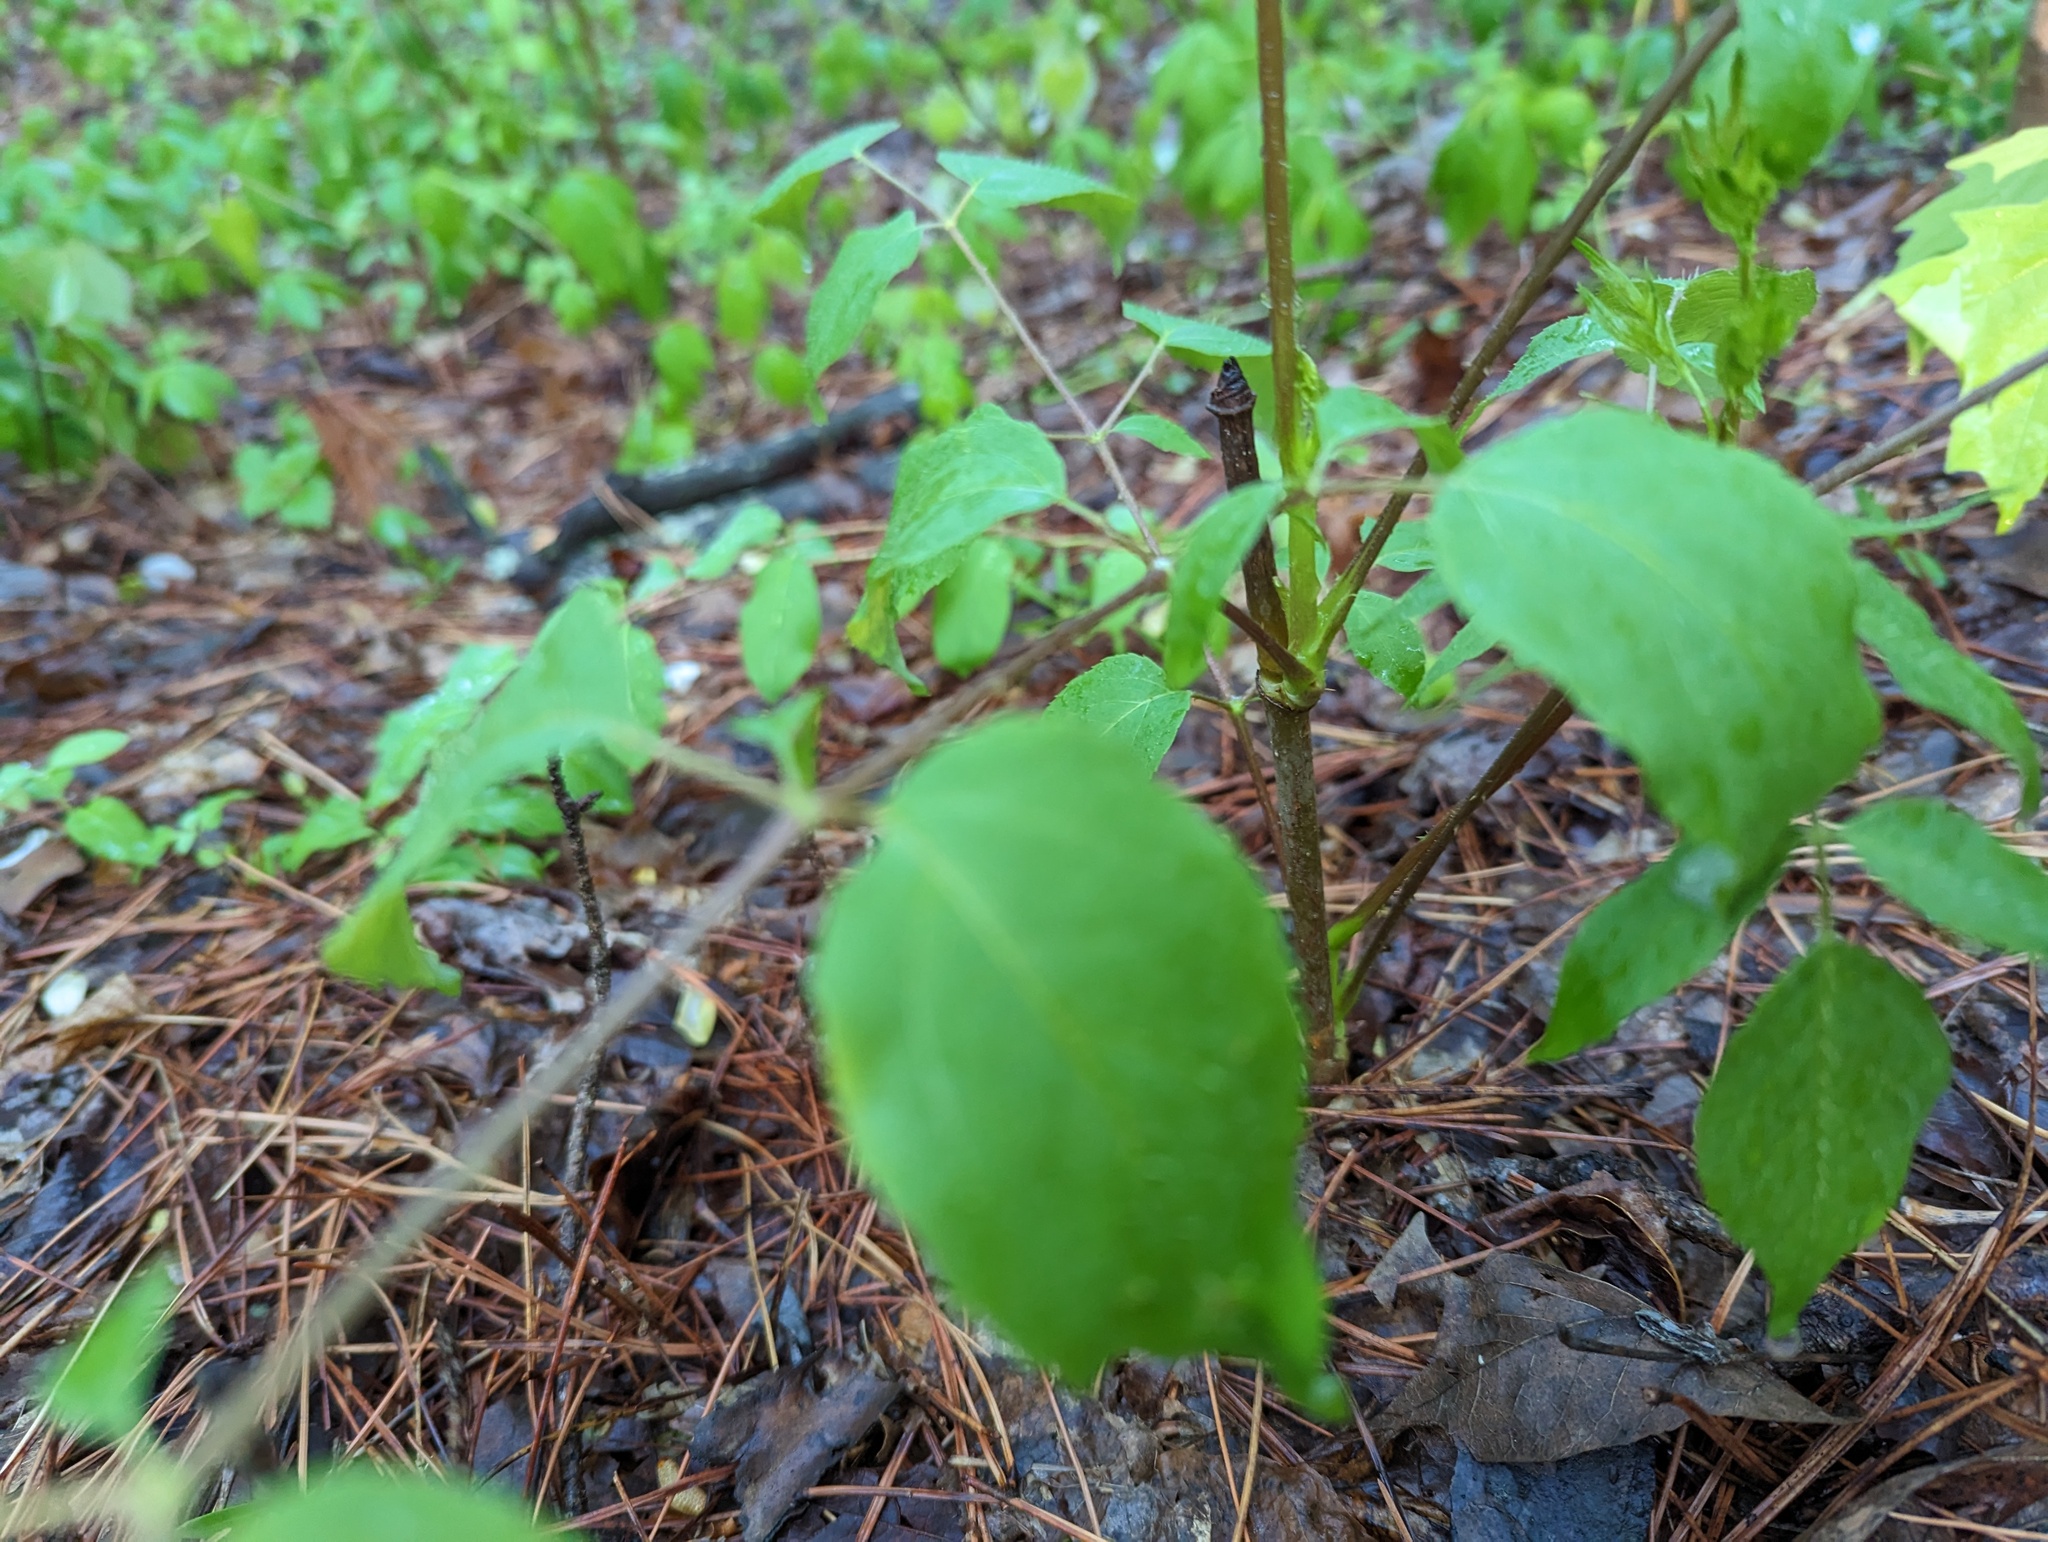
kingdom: Plantae
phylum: Tracheophyta
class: Magnoliopsida
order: Apiales
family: Araliaceae
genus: Aralia
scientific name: Aralia spinosa
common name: Hercules'-club
